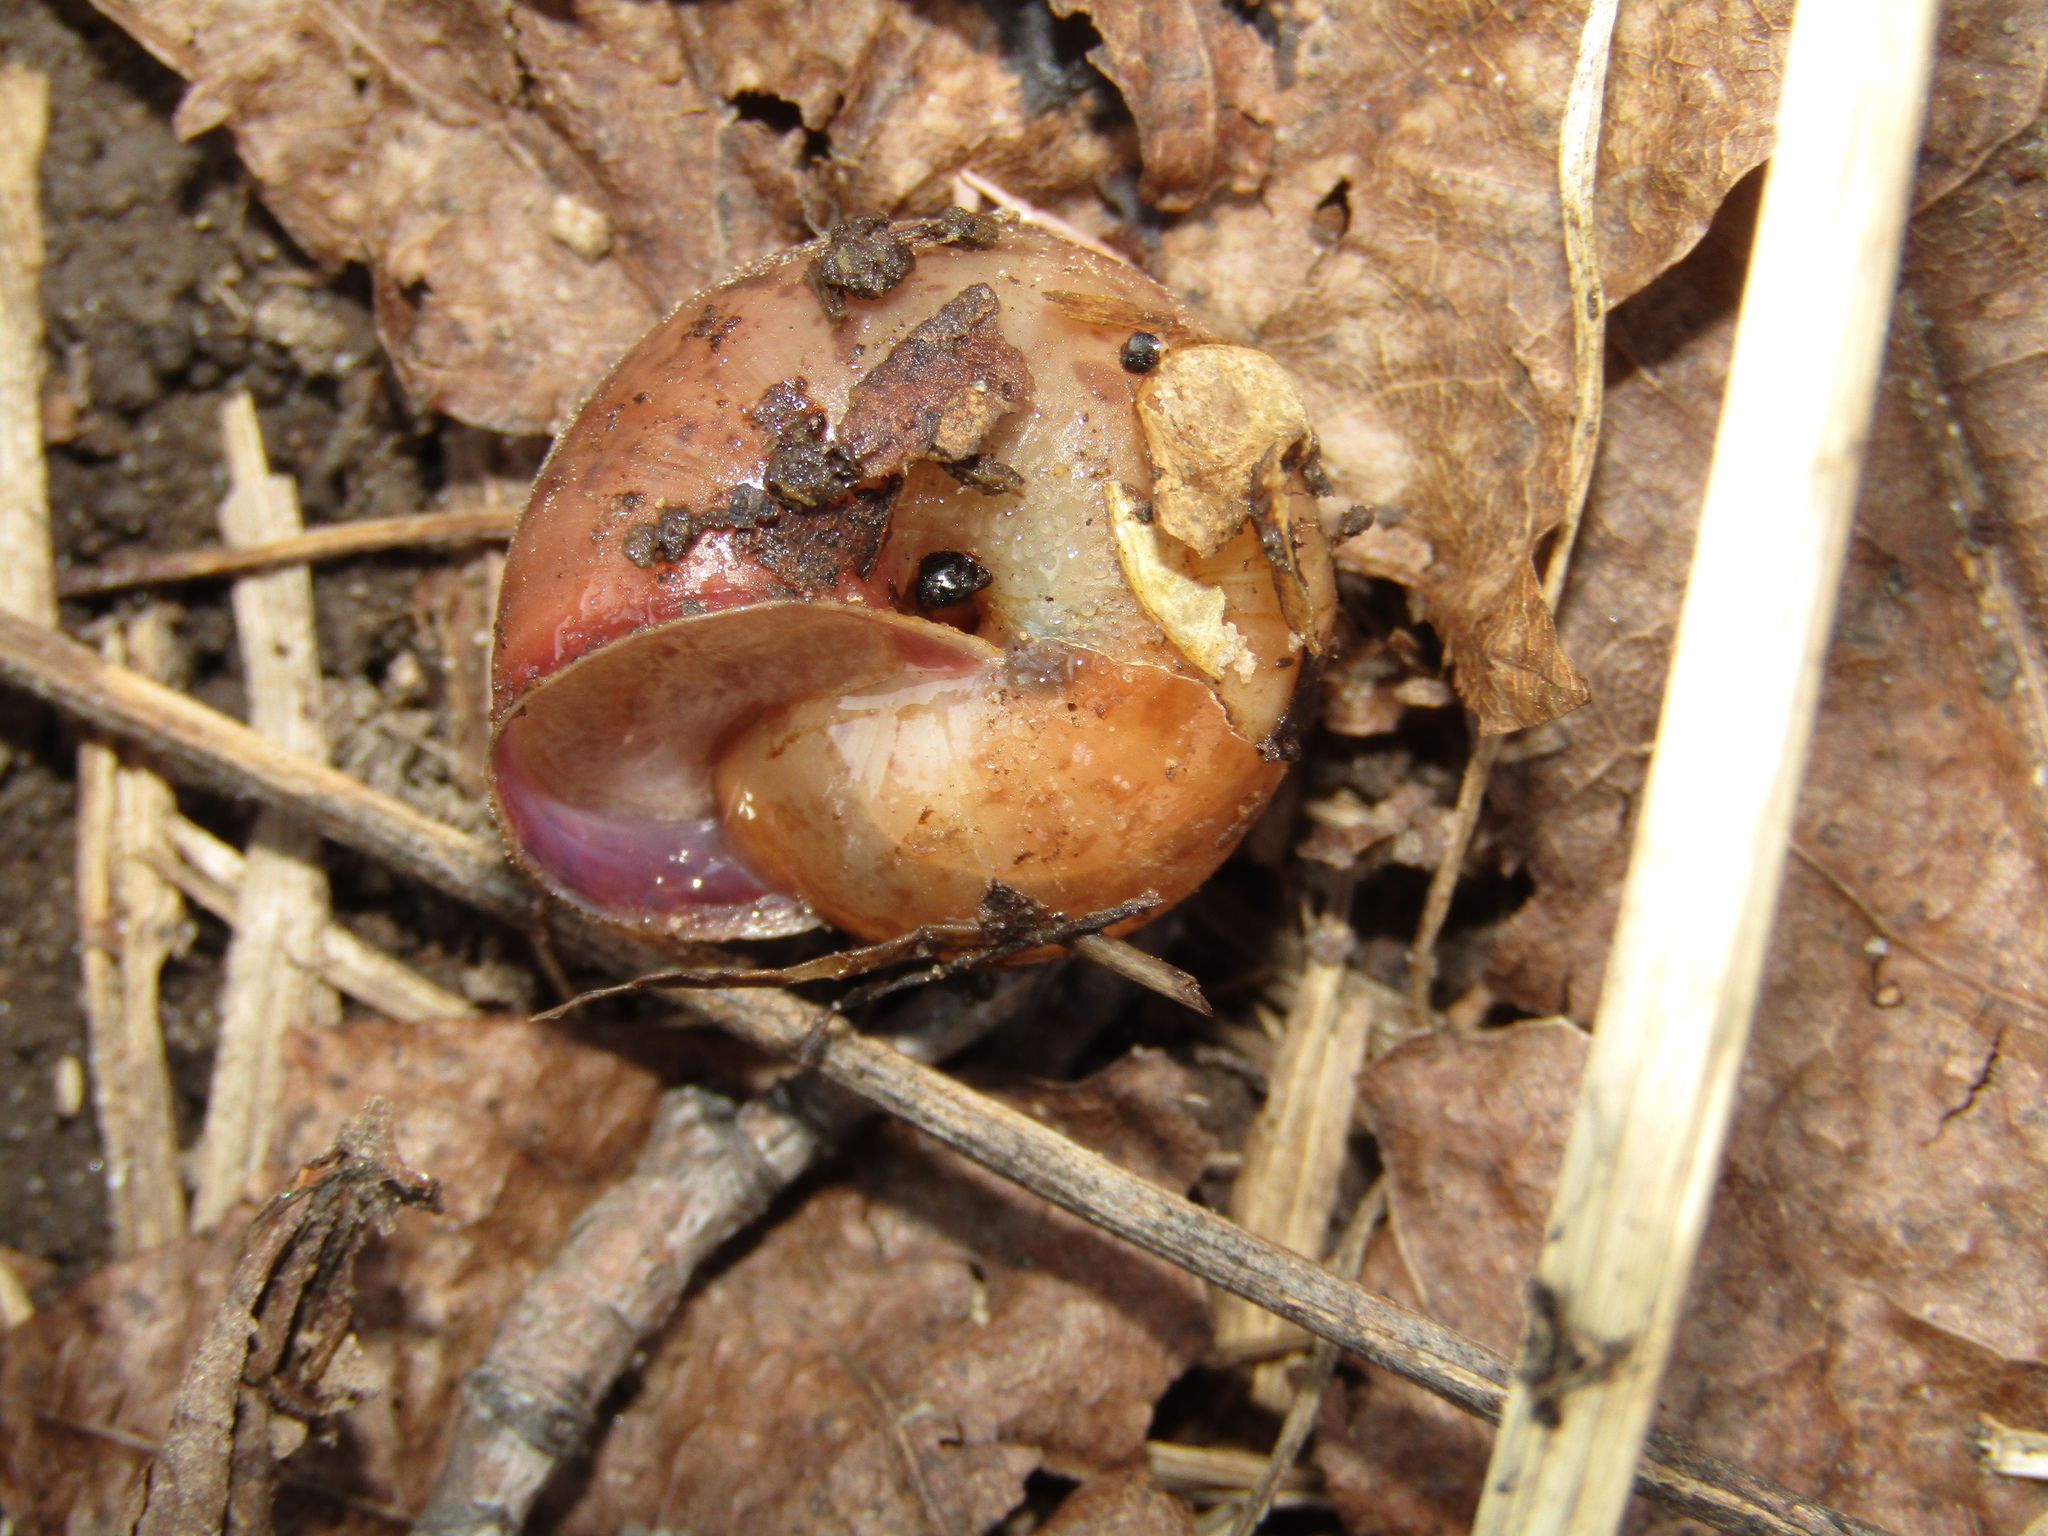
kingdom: Animalia
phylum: Mollusca
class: Gastropoda
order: Stylommatophora
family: Camaenidae
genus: Fruticicola
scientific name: Fruticicola fruticum
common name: Bush snail
